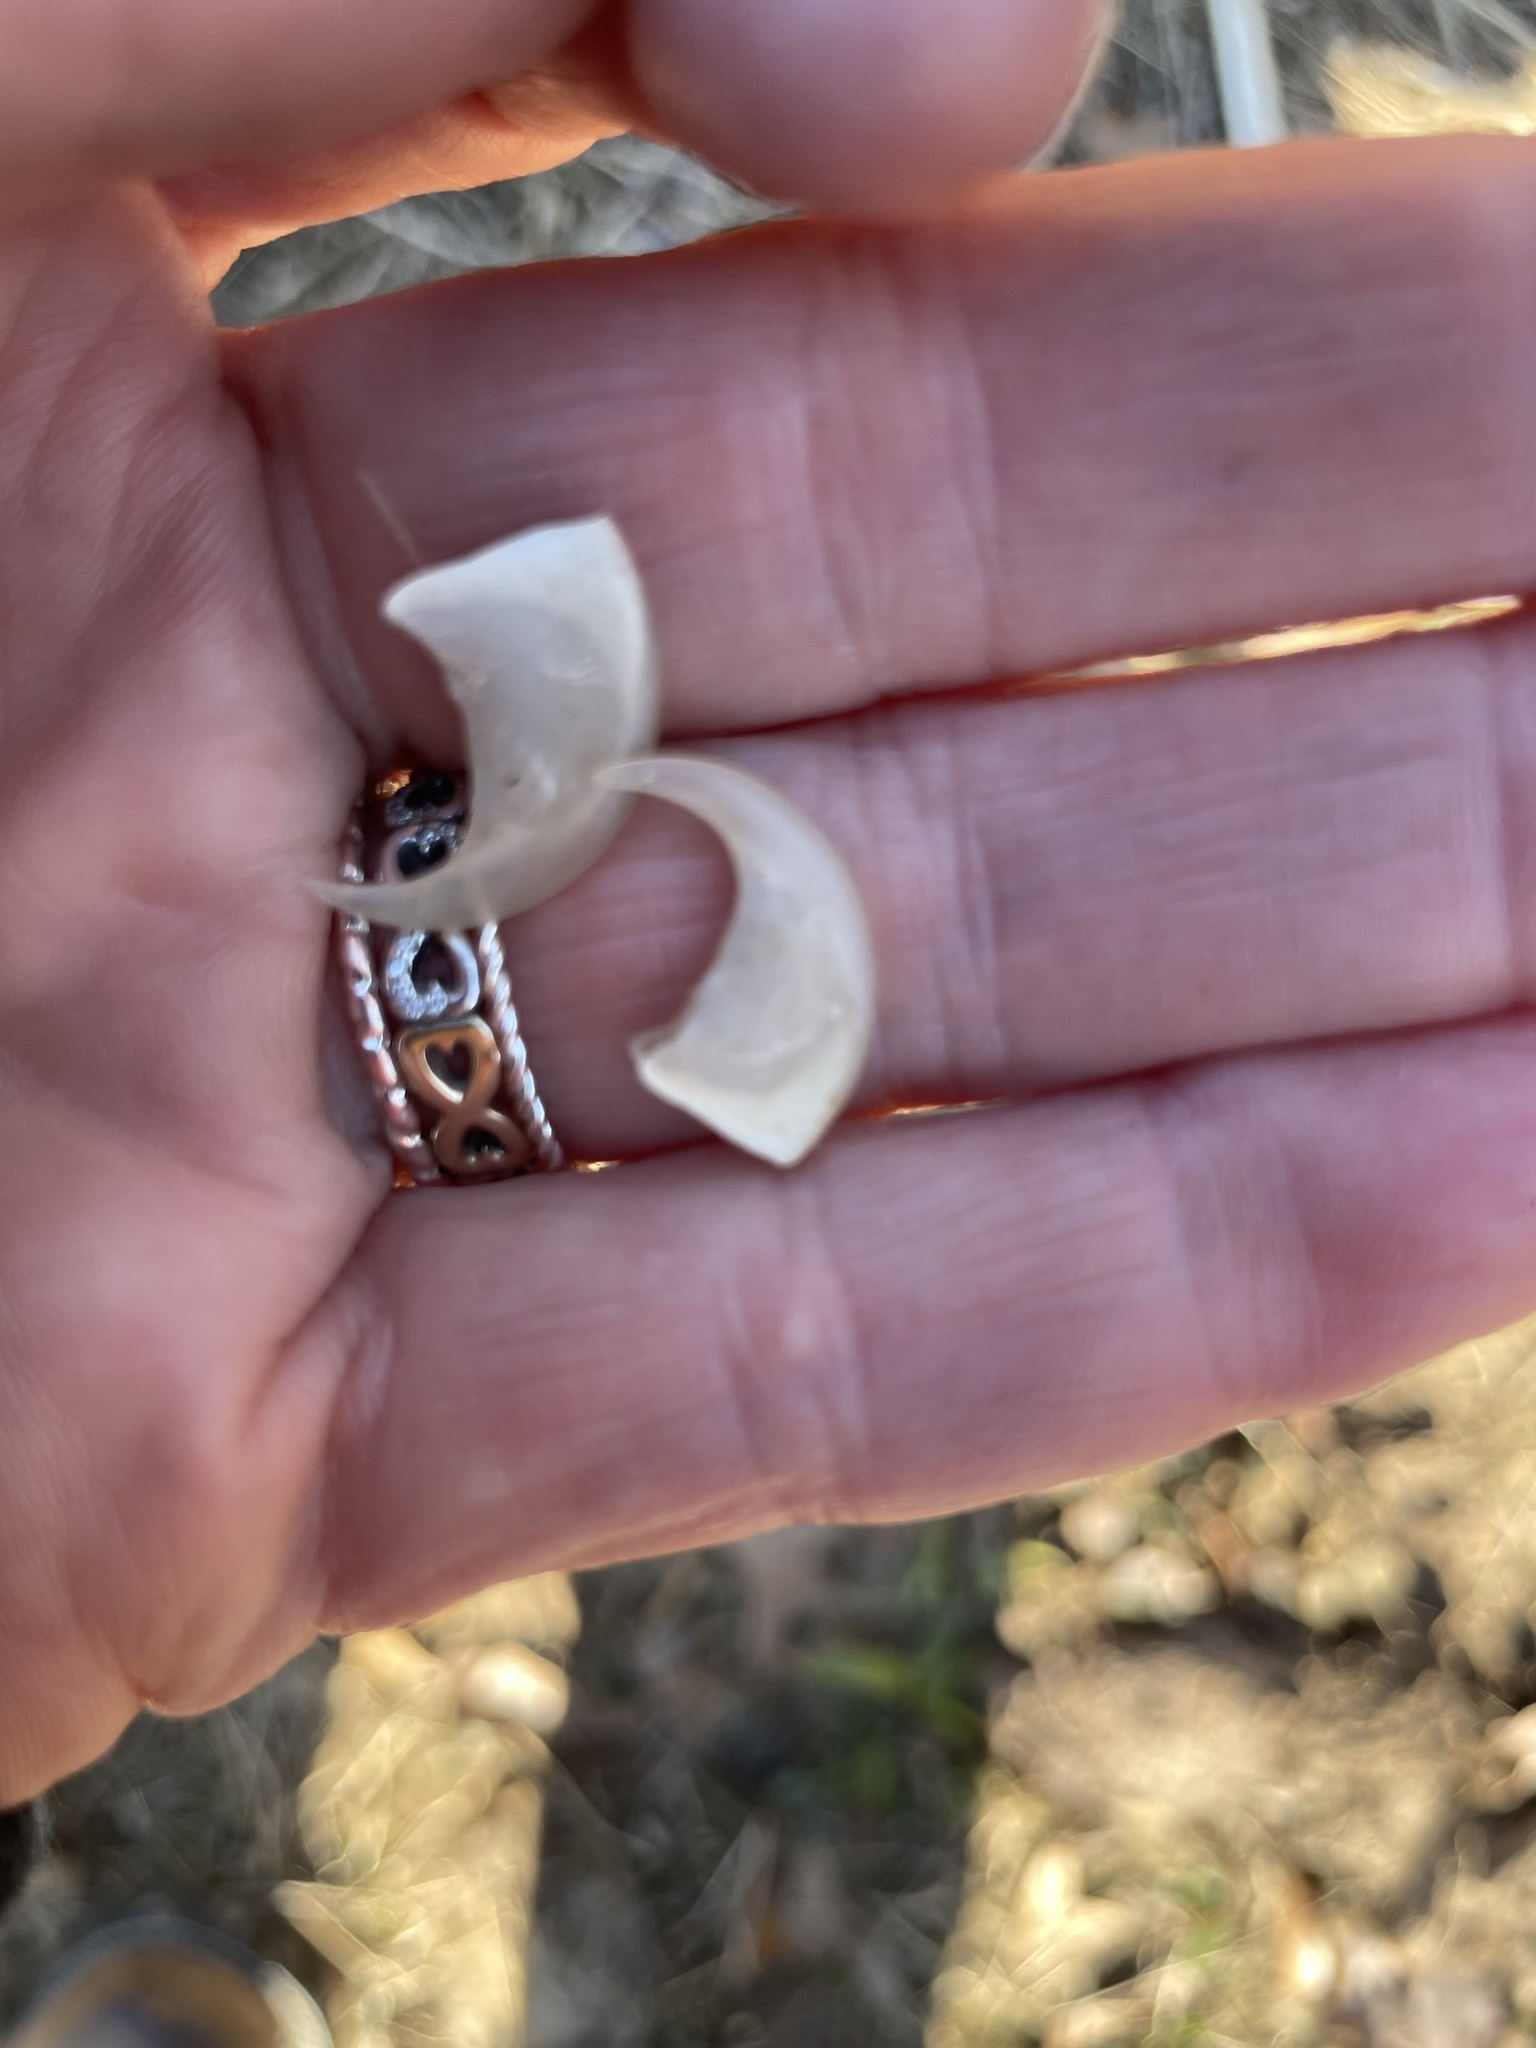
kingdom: Animalia
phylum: Chordata
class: Mammalia
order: Carnivora
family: Felidae
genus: Lynx
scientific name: Lynx rufus
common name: Bobcat
